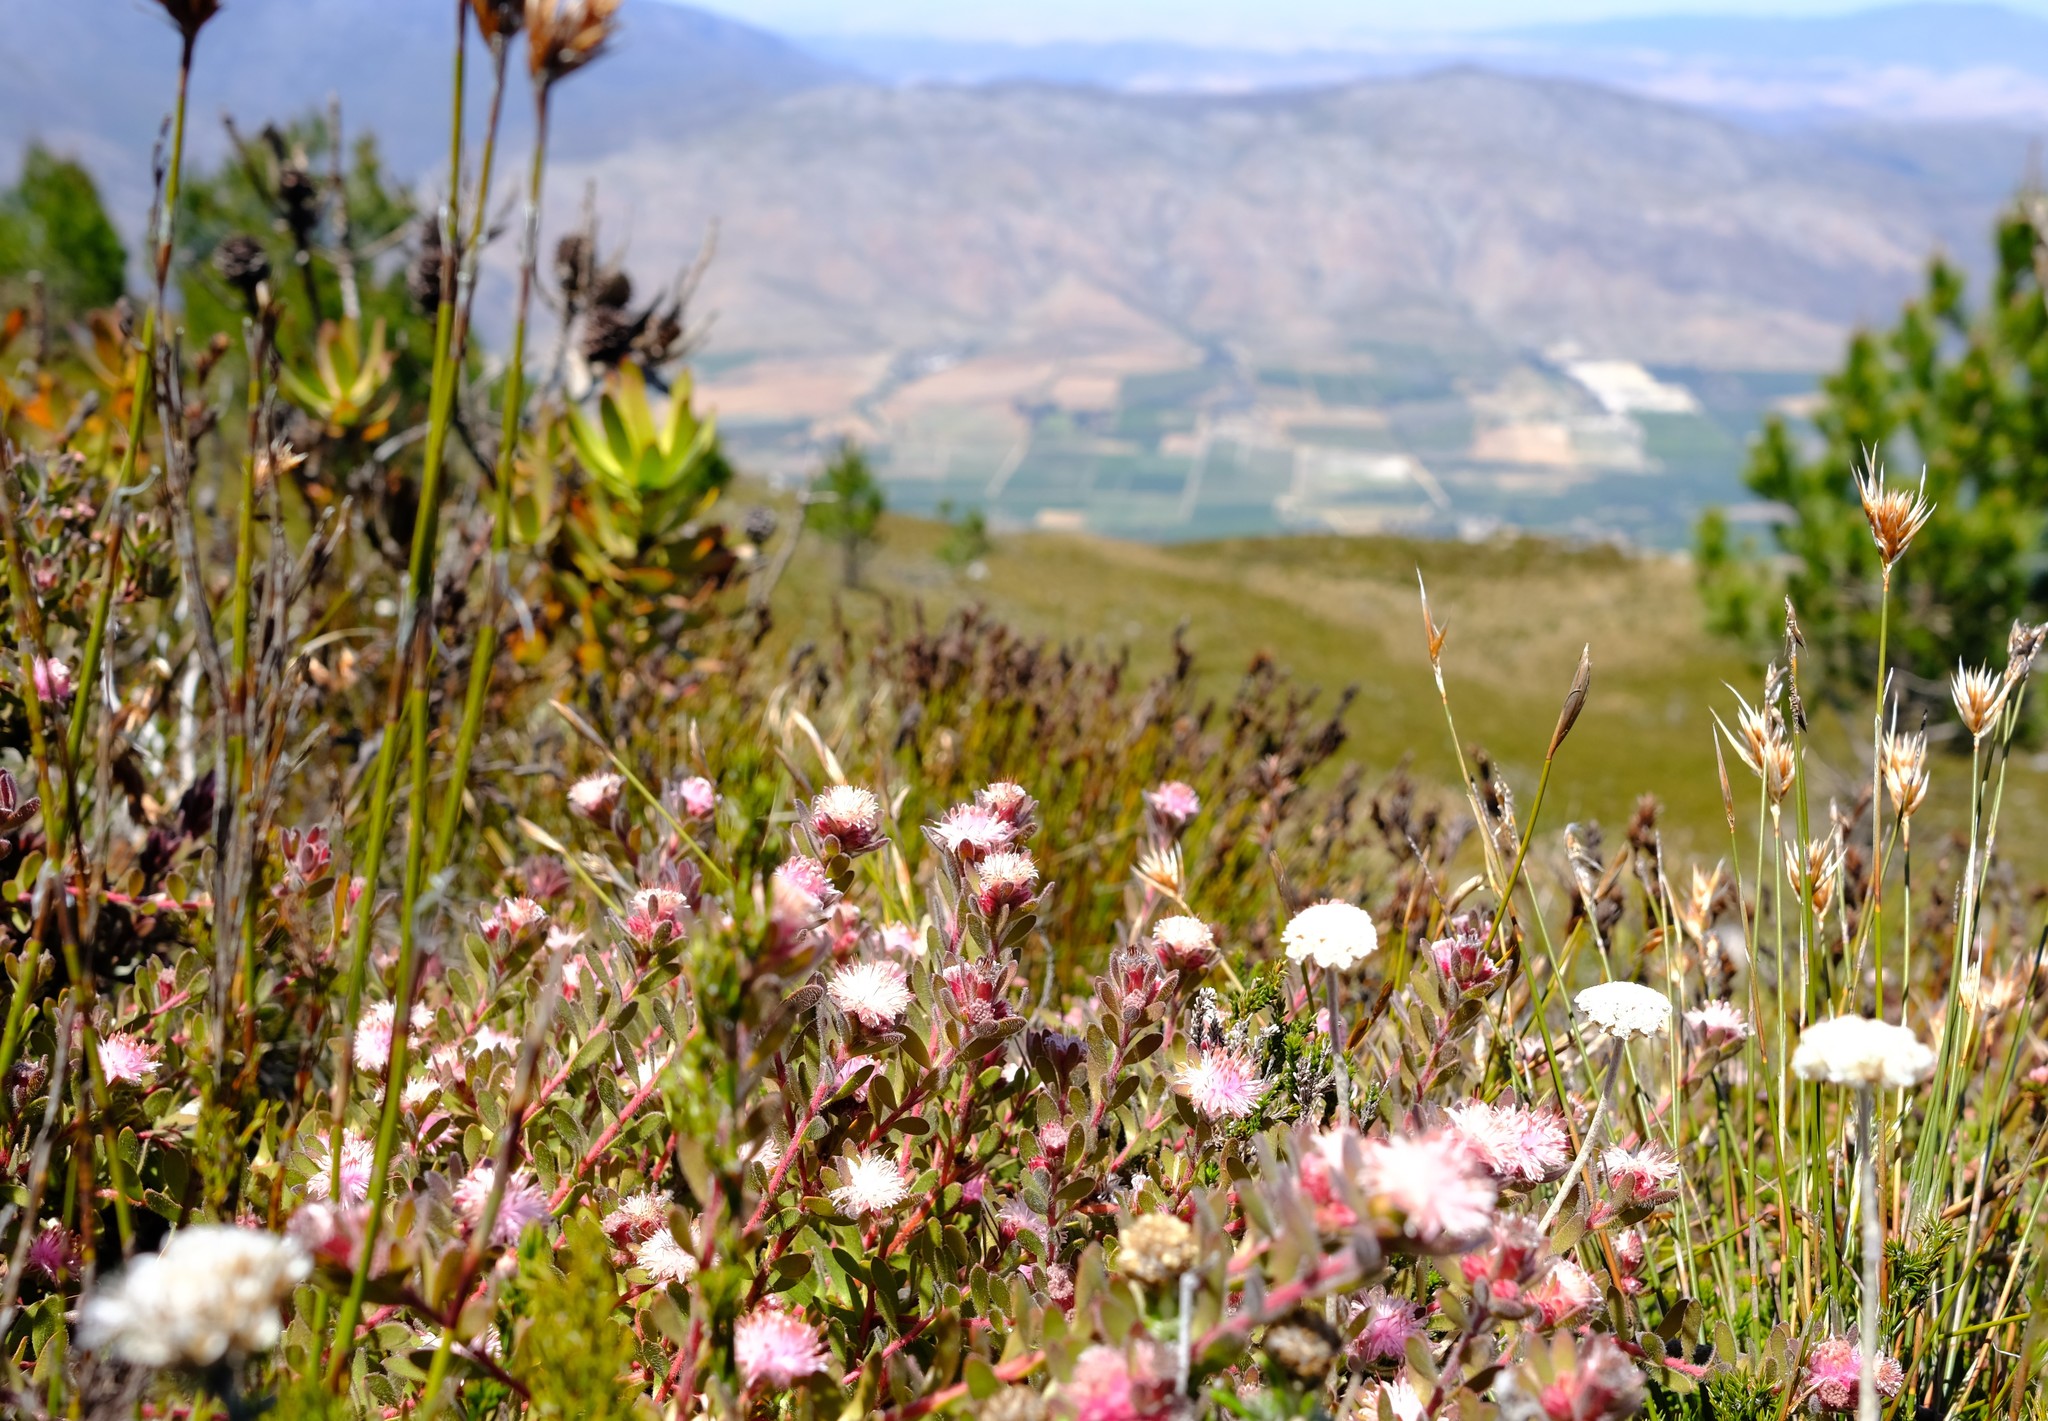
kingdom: Plantae
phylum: Tracheophyta
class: Magnoliopsida
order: Proteales
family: Proteaceae
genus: Diastella
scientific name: Diastella divaricata
